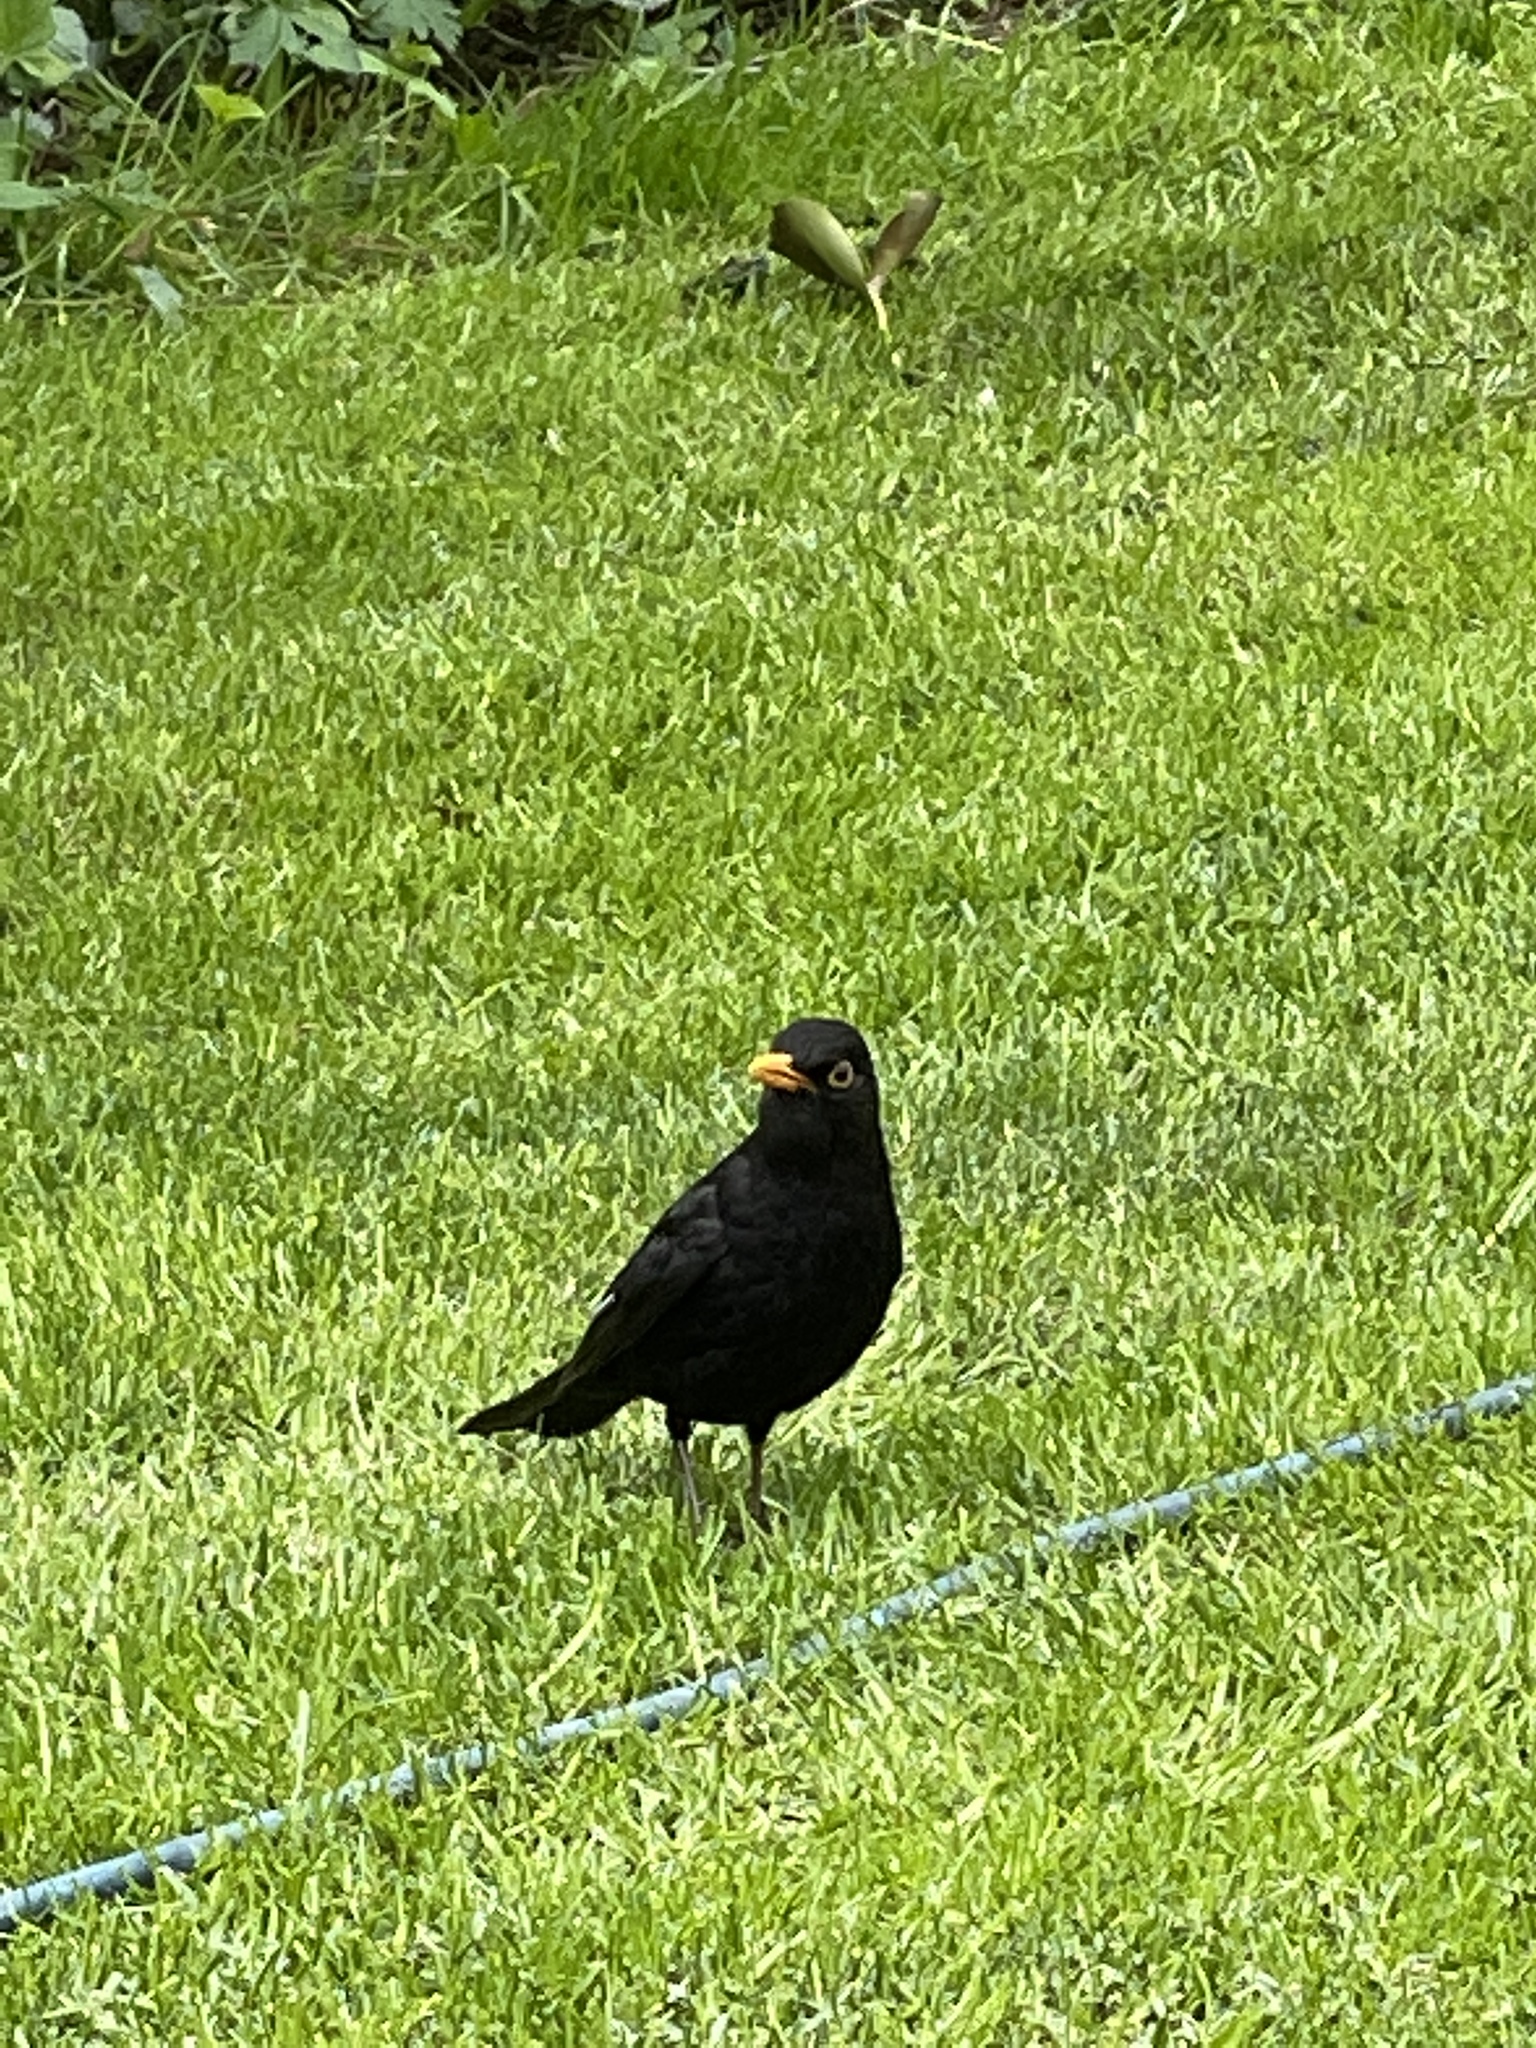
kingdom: Animalia
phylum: Chordata
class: Aves
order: Passeriformes
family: Turdidae
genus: Turdus
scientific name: Turdus merula
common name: Common blackbird
